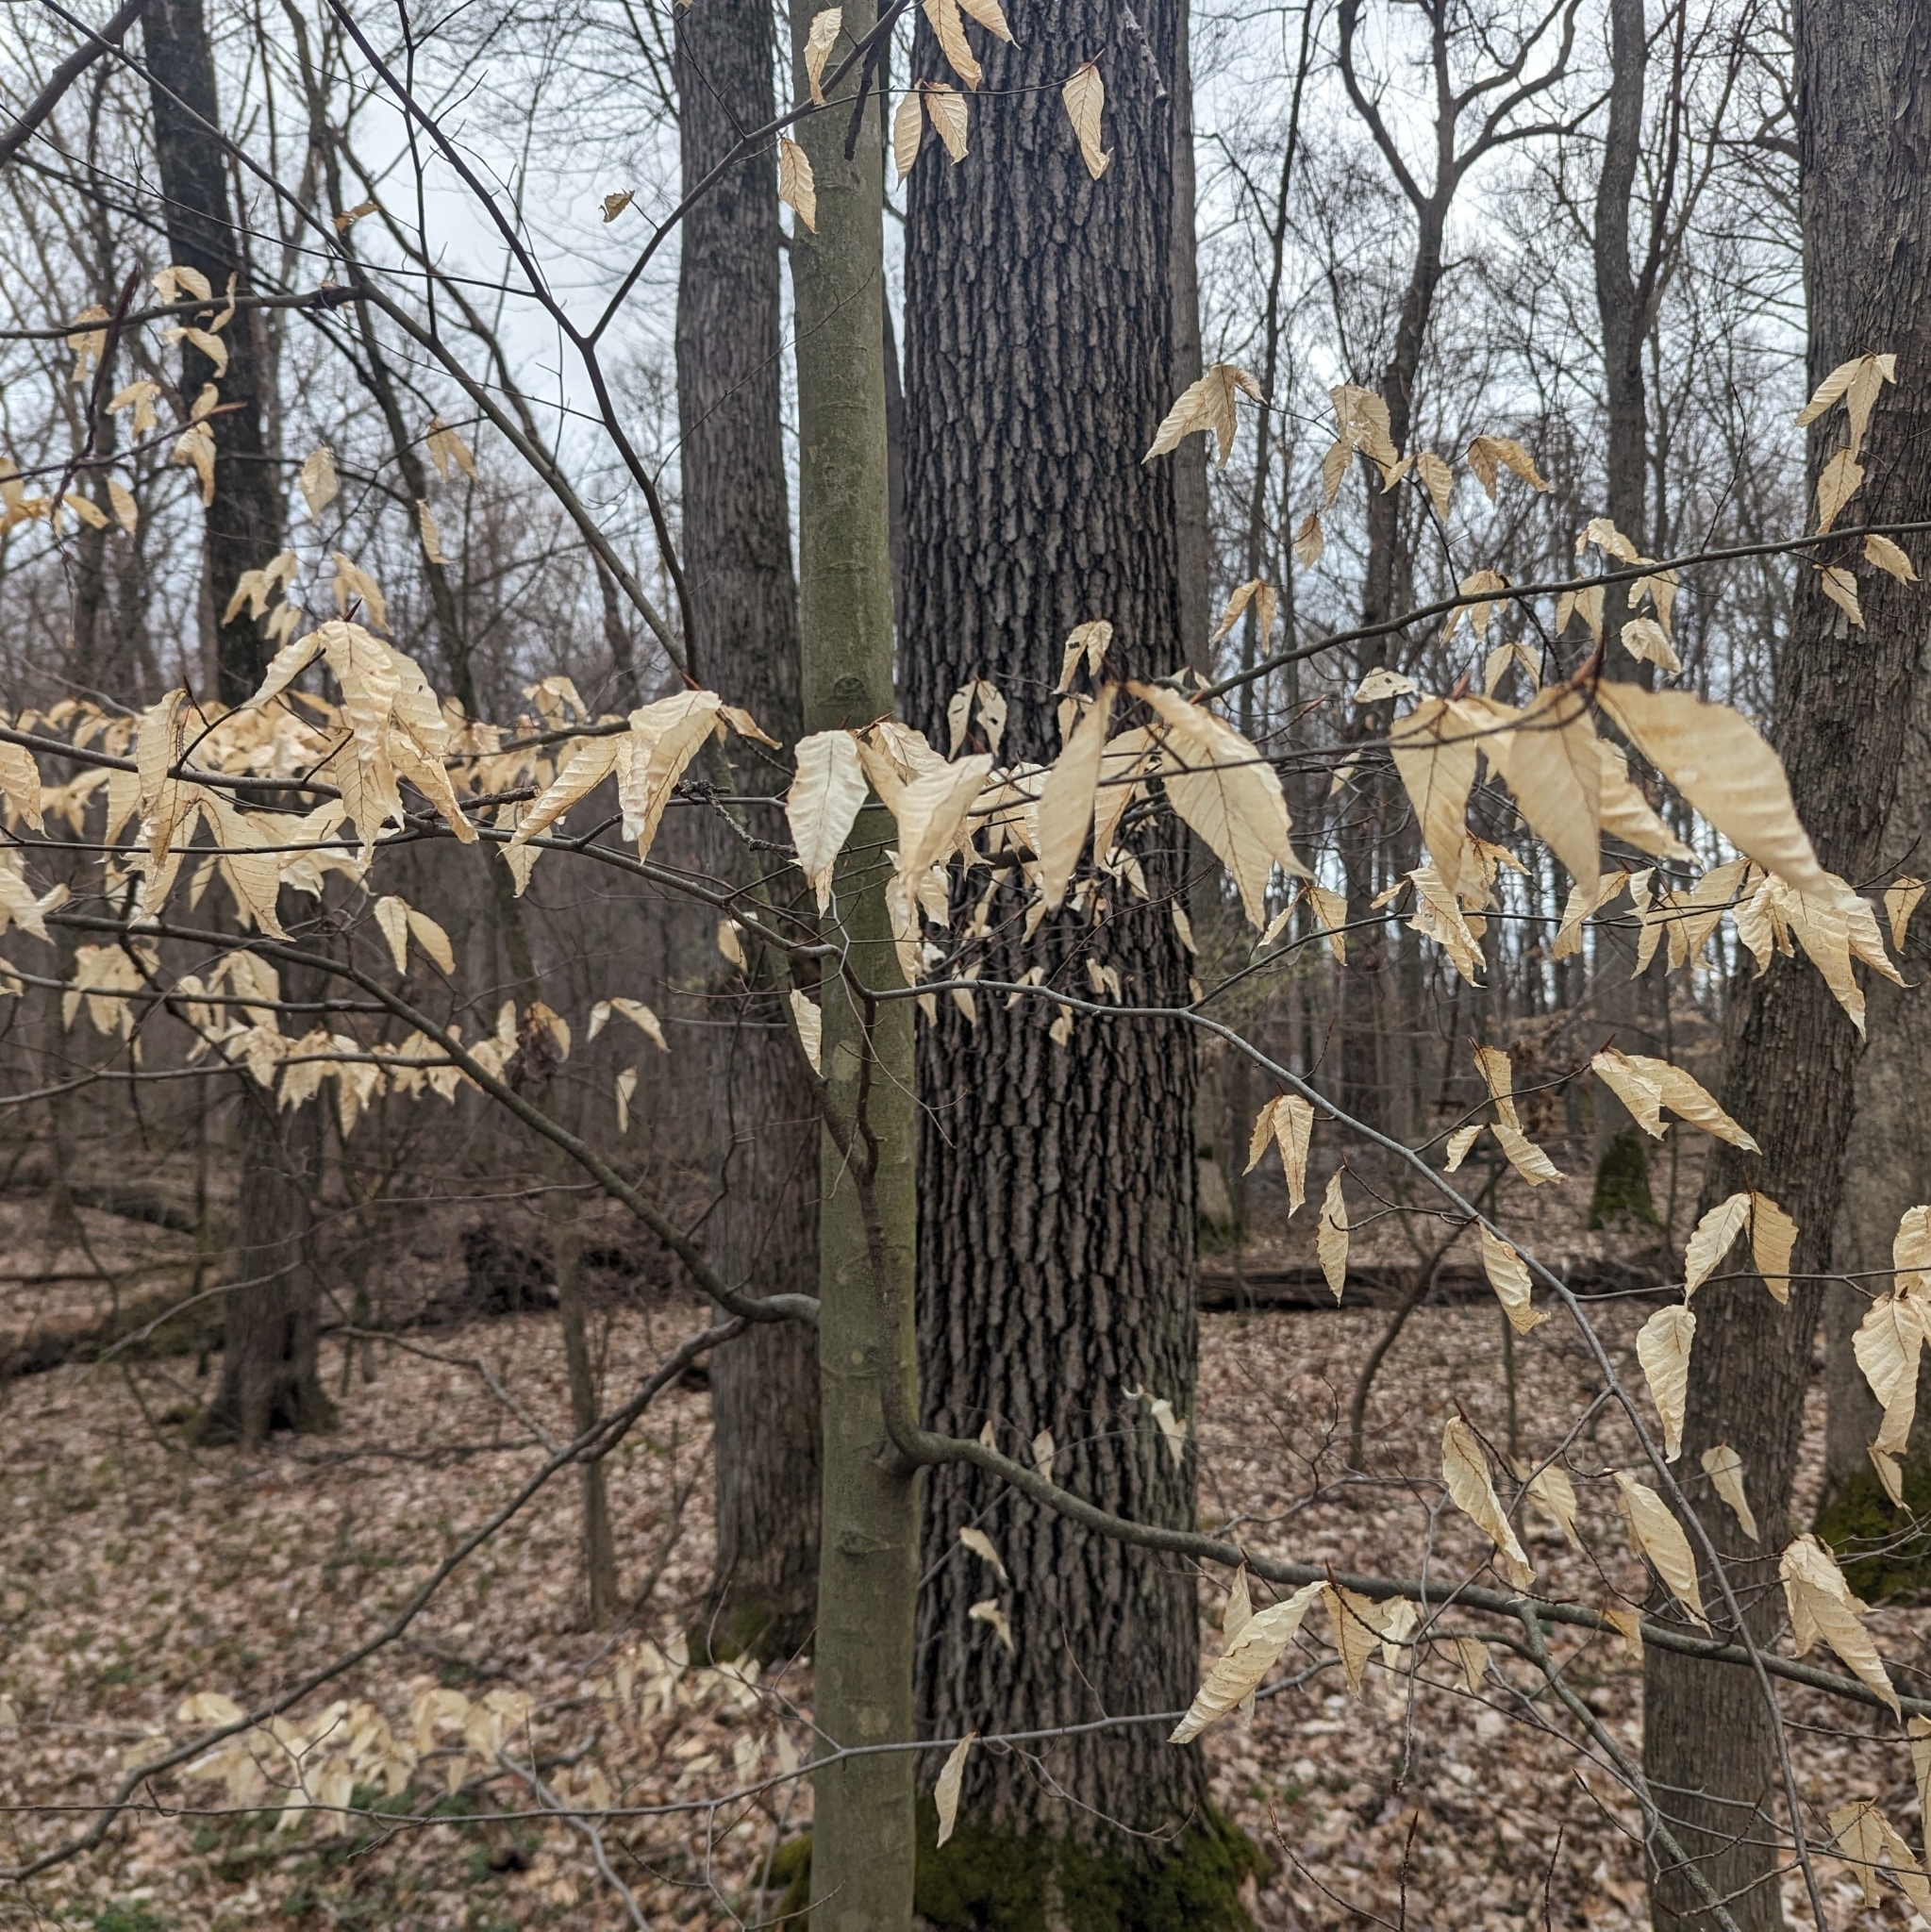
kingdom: Plantae
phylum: Tracheophyta
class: Magnoliopsida
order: Fagales
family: Fagaceae
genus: Fagus
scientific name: Fagus grandifolia
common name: American beech
